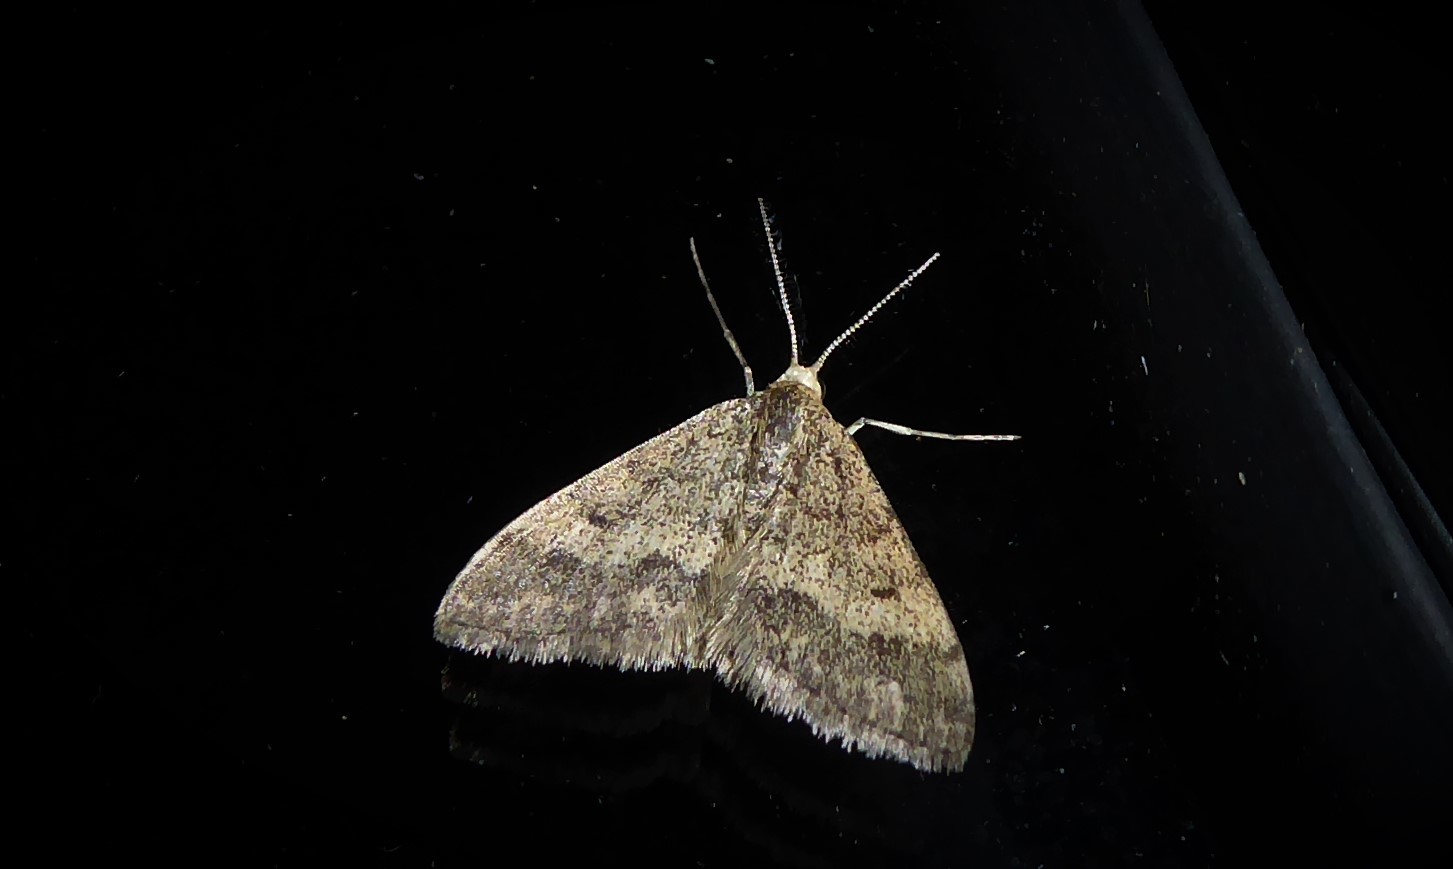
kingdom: Animalia
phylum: Arthropoda
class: Insecta
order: Lepidoptera
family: Geometridae
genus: Scopula
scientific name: Scopula rubraria
